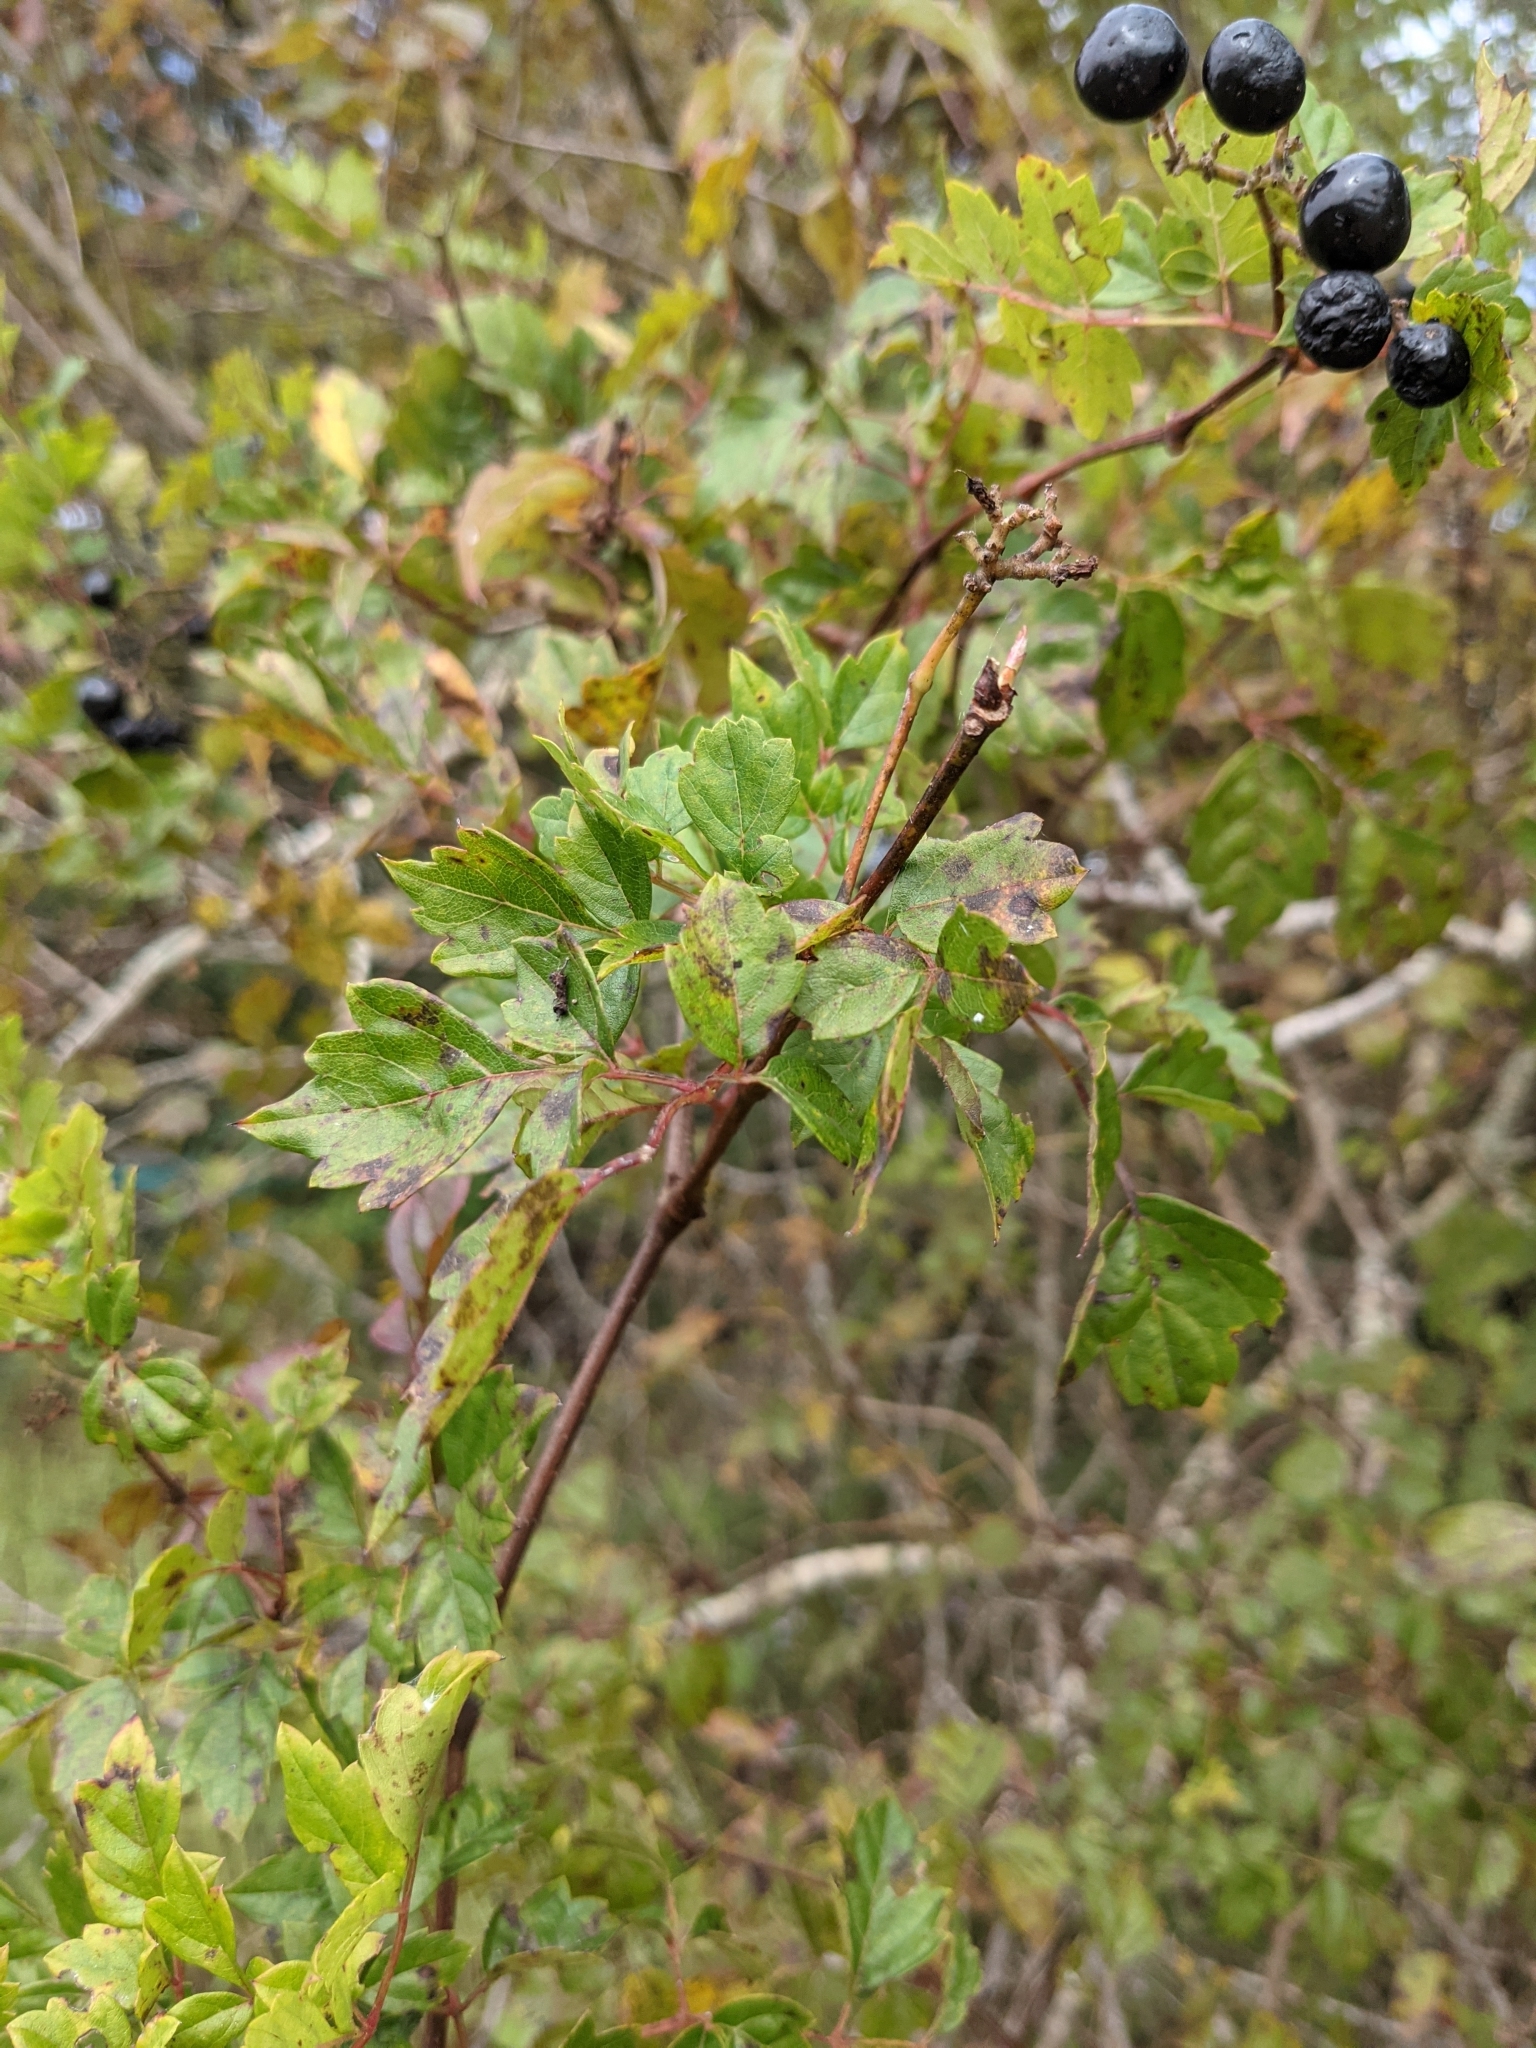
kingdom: Plantae
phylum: Tracheophyta
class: Magnoliopsida
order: Vitales
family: Vitaceae
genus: Nekemias
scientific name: Nekemias arborea
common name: Peppervine
